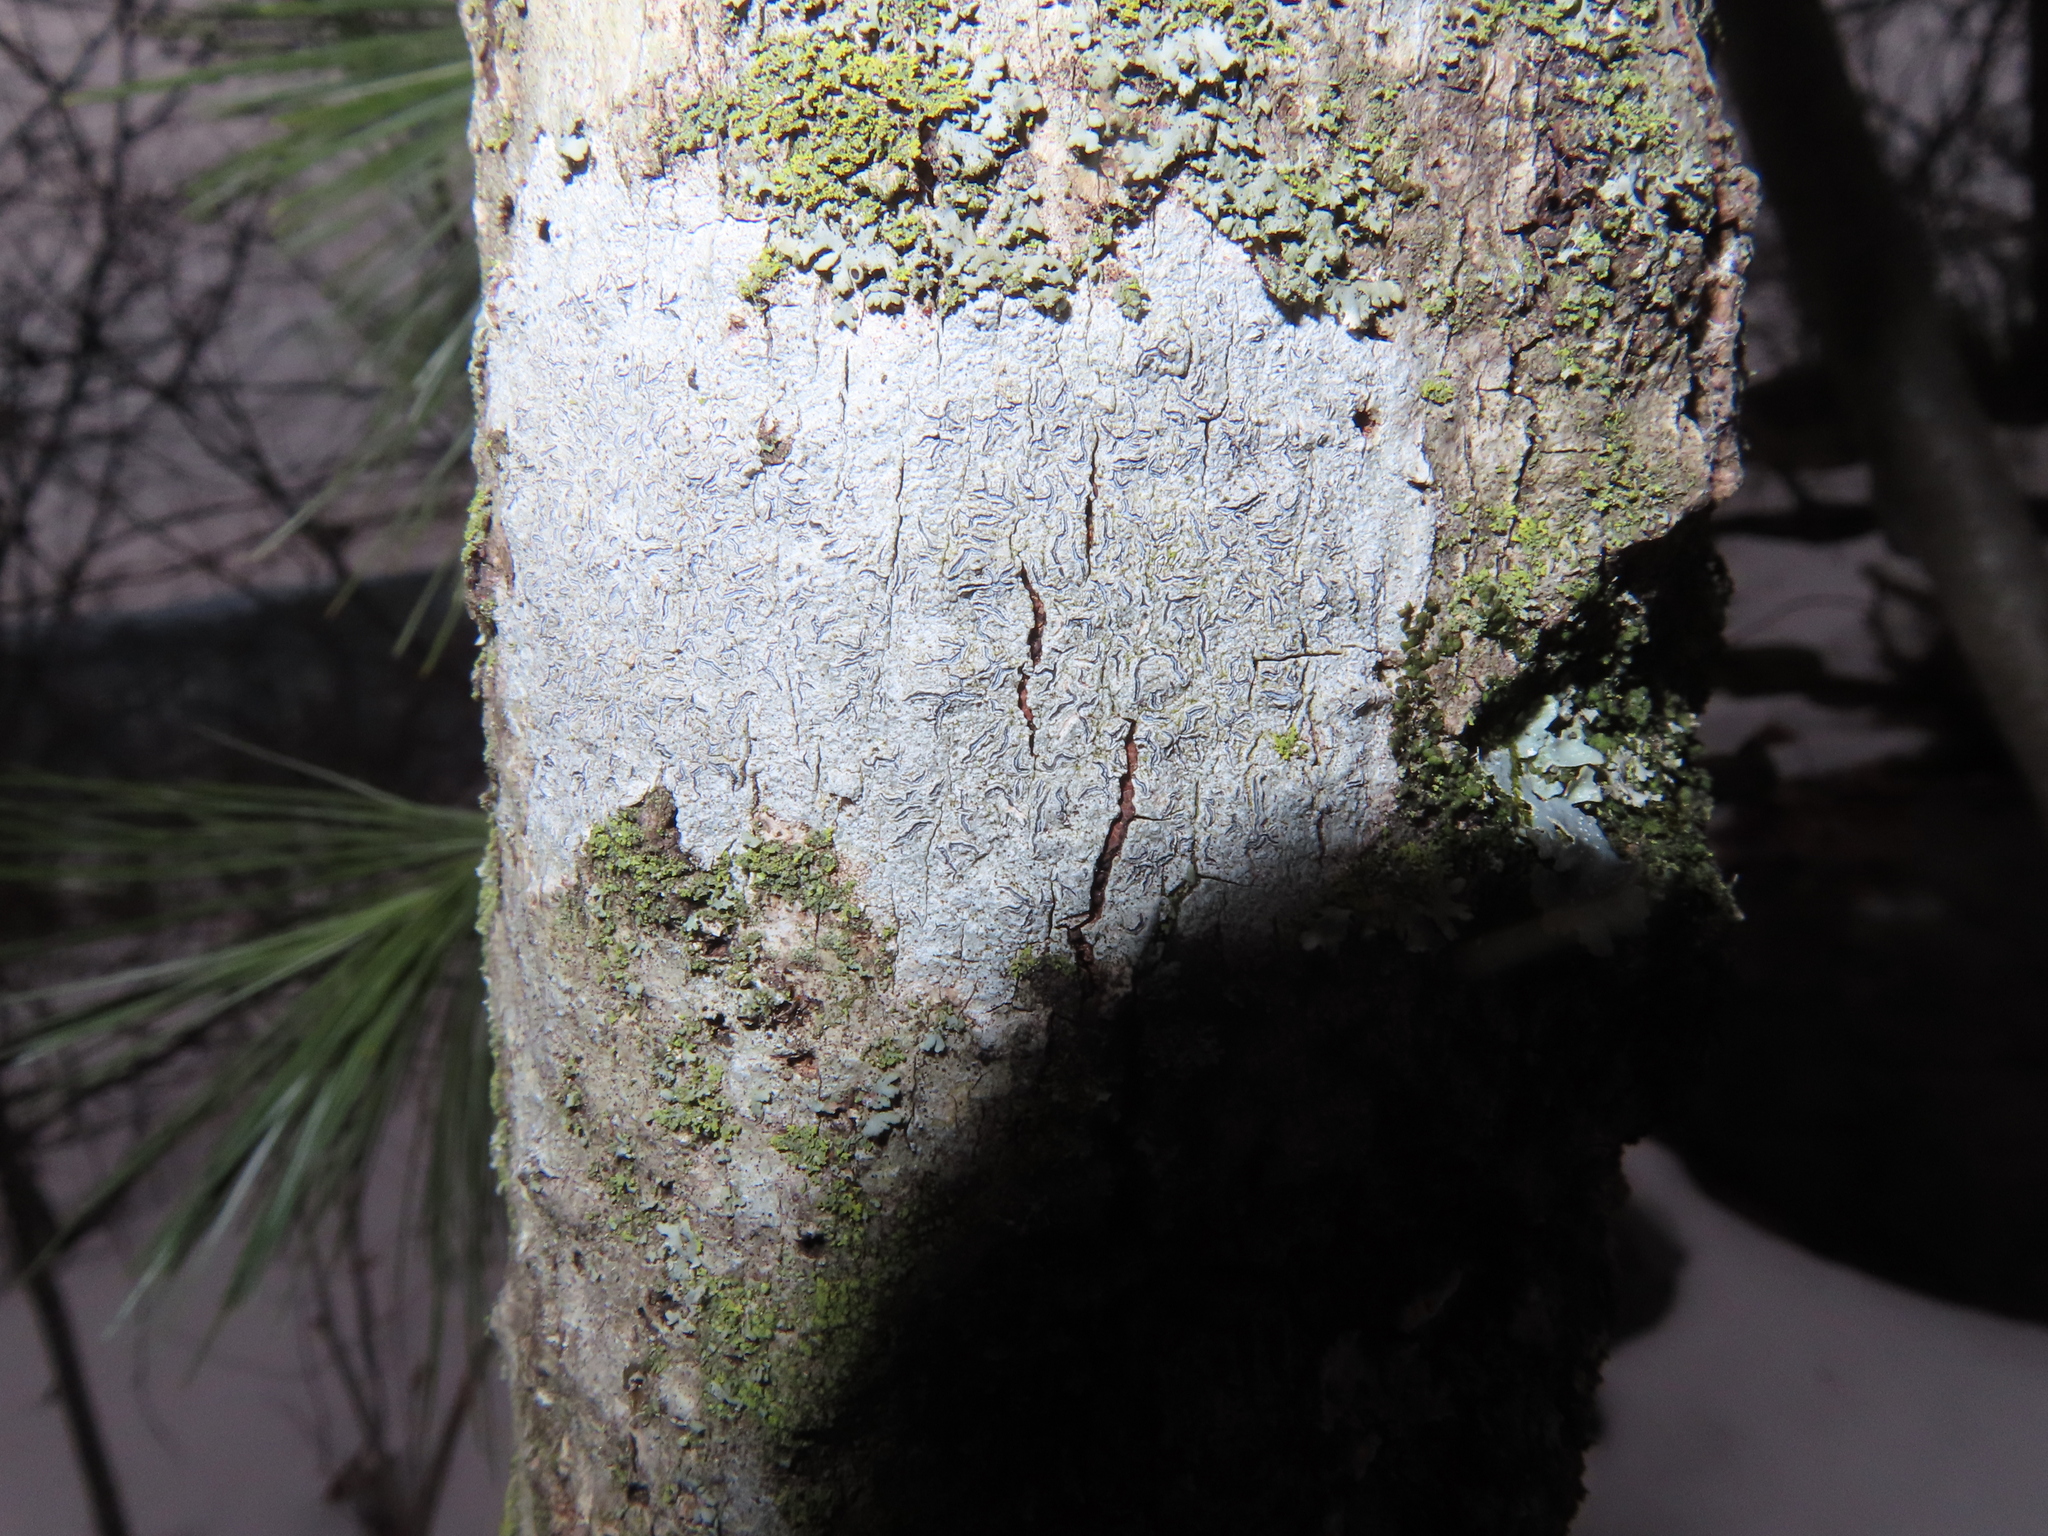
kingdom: Fungi
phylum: Ascomycota
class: Lecanoromycetes
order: Ostropales
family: Graphidaceae
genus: Graphis
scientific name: Graphis scripta
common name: Script lichen
